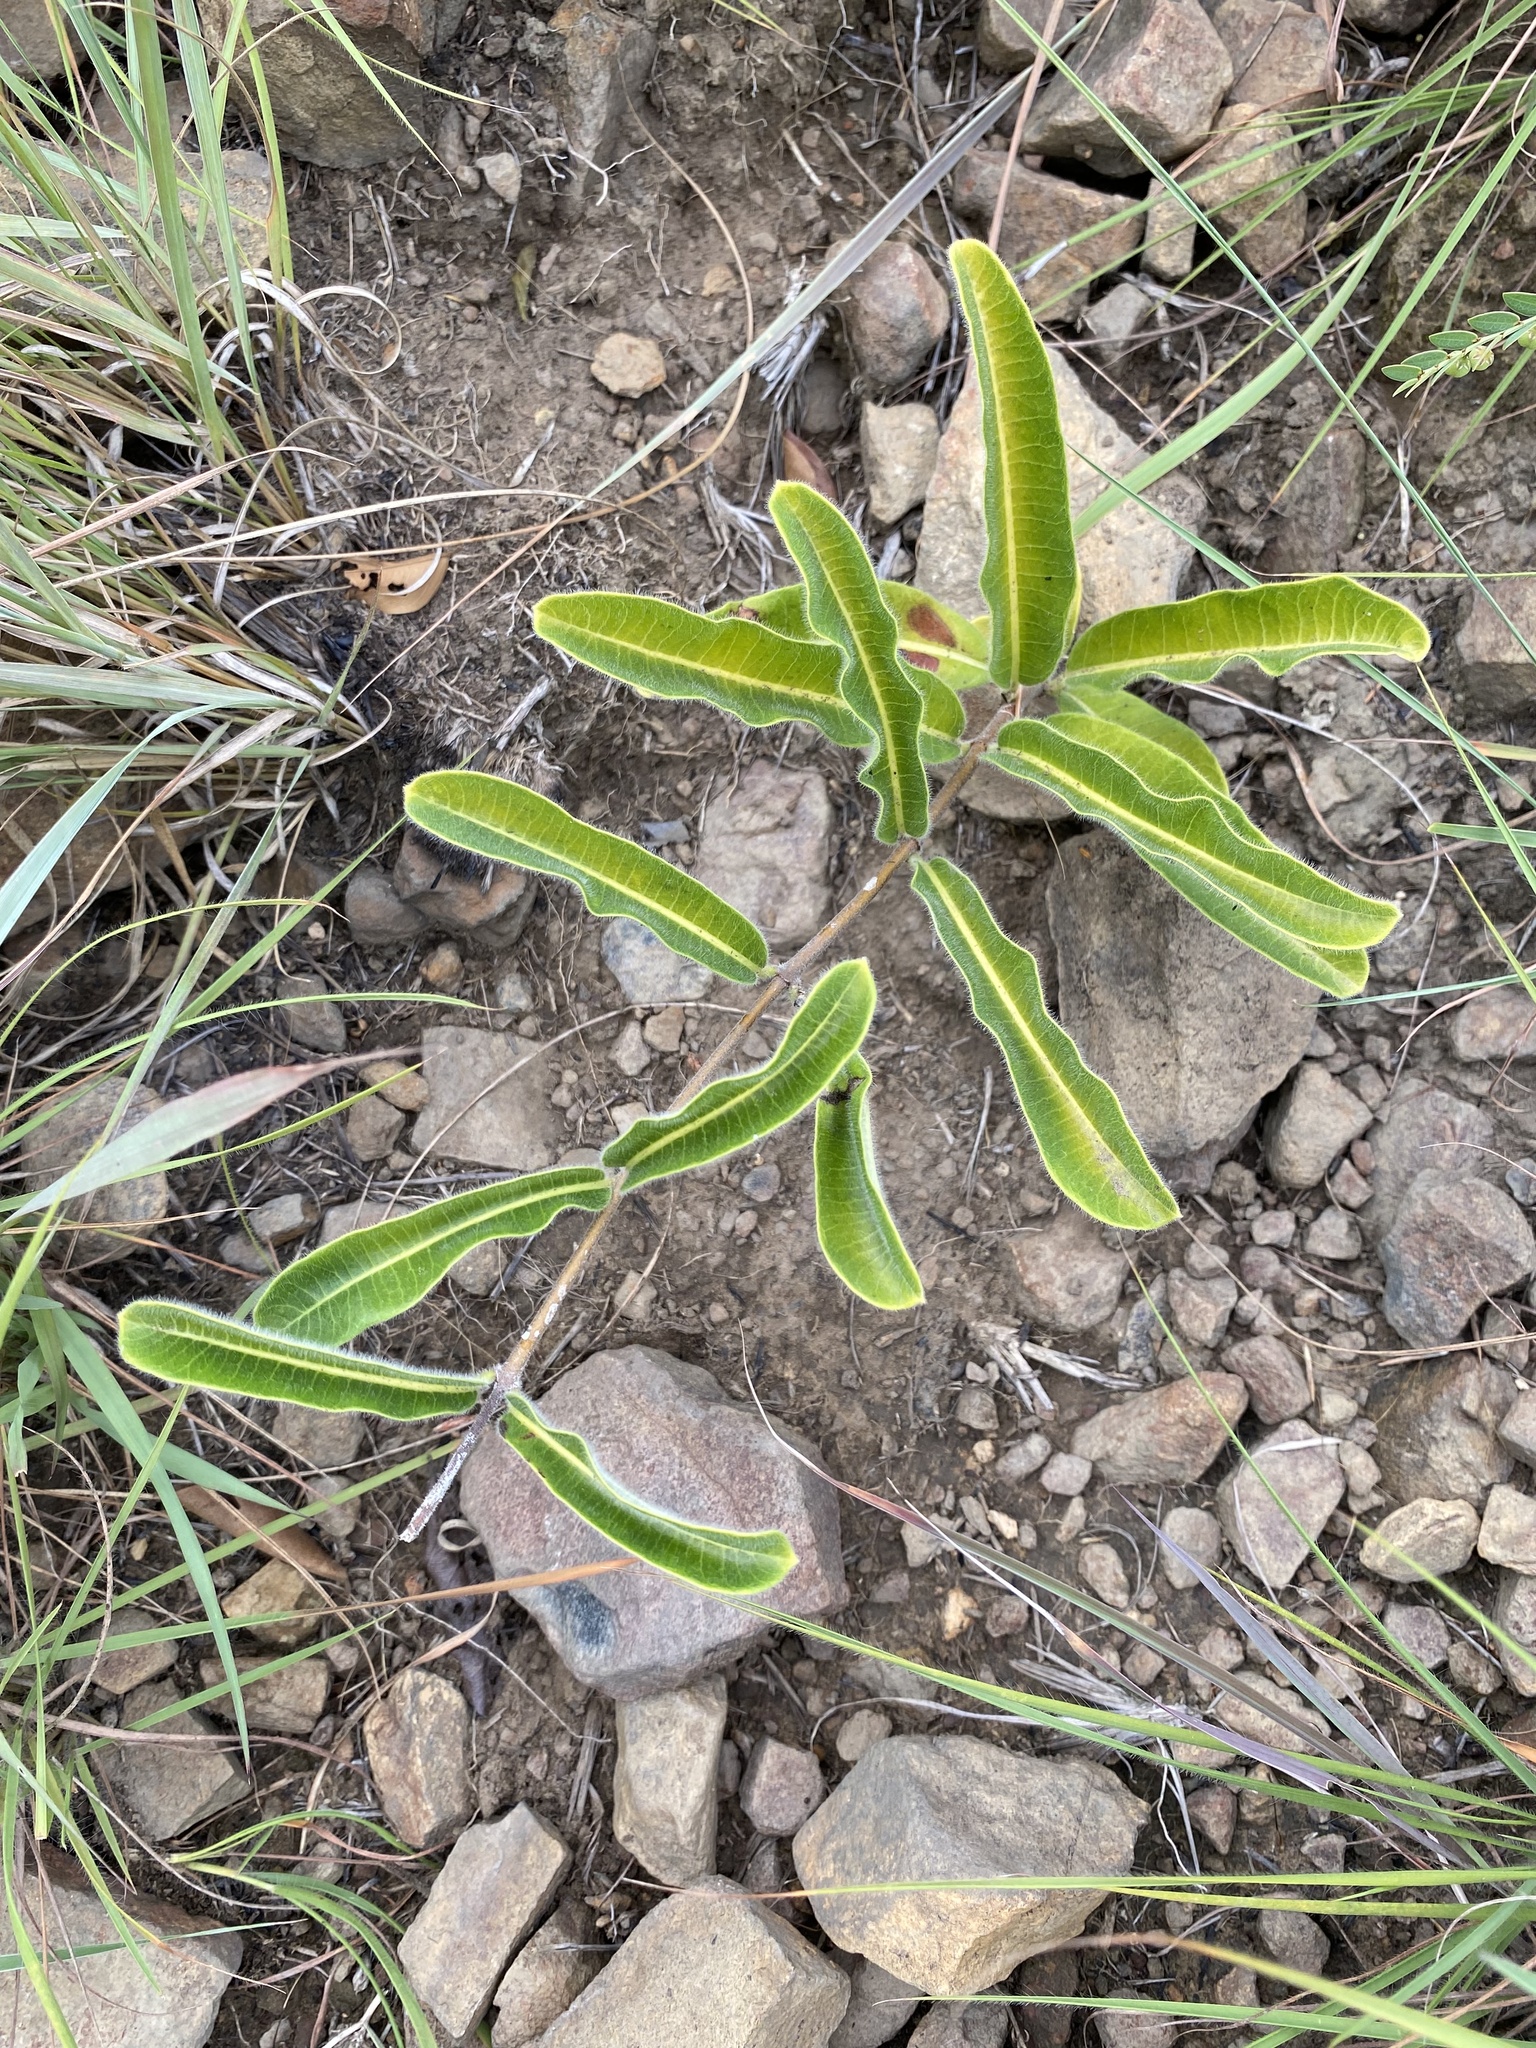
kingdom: Plantae
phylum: Tracheophyta
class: Magnoliopsida
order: Gentianales
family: Apocynaceae
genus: Raphionacme
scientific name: Raphionacme procumbens
